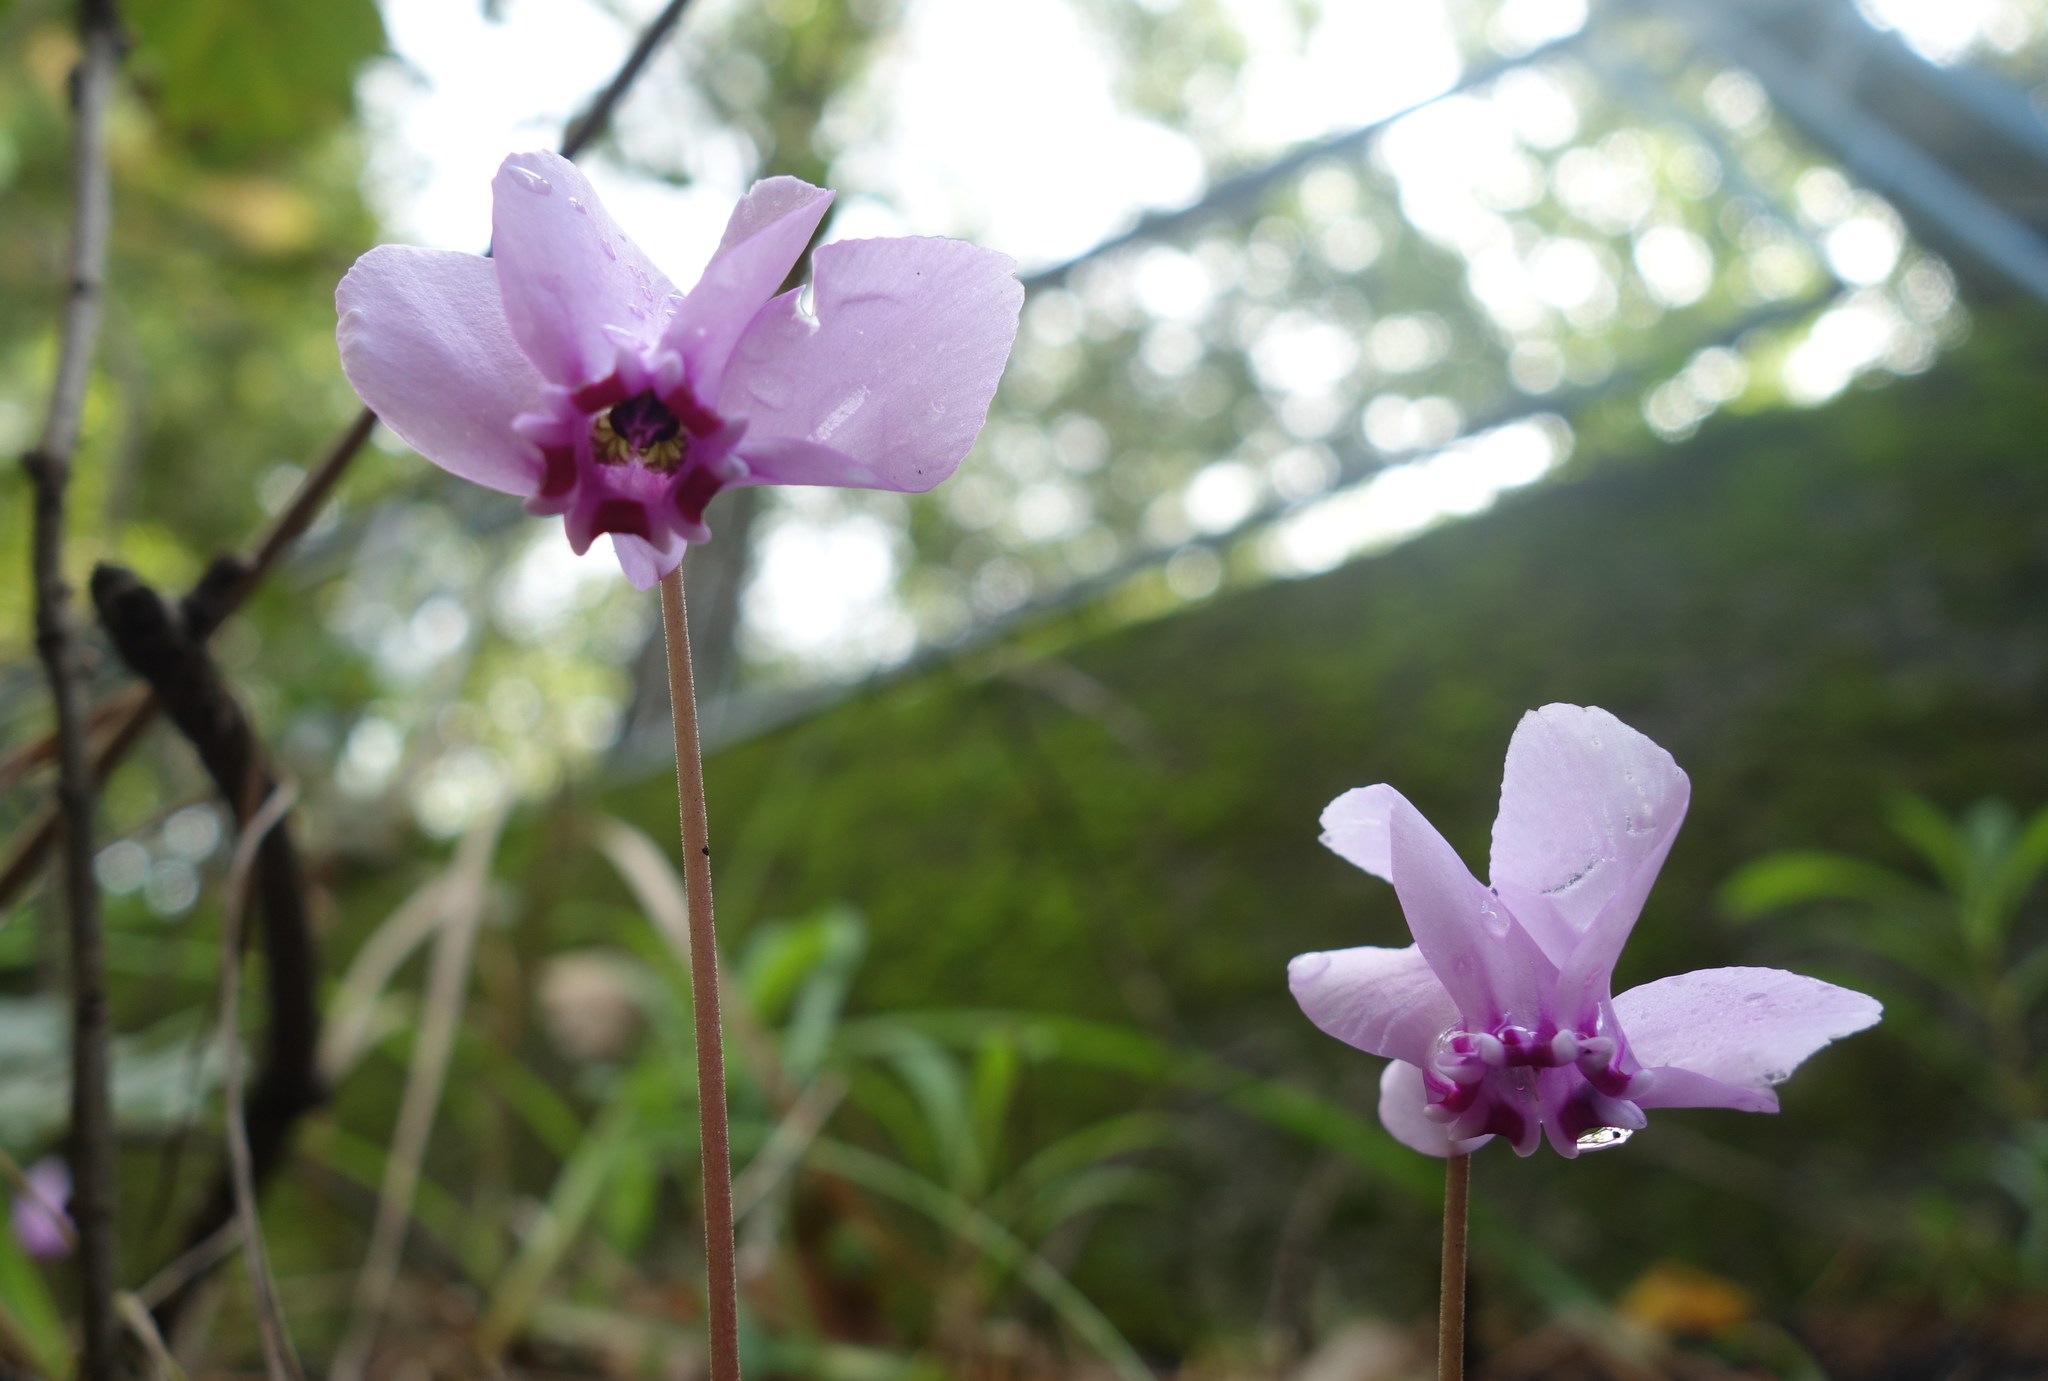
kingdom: Plantae
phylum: Tracheophyta
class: Magnoliopsida
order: Ericales
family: Primulaceae
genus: Cyclamen
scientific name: Cyclamen hederifolium
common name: Sowbread
